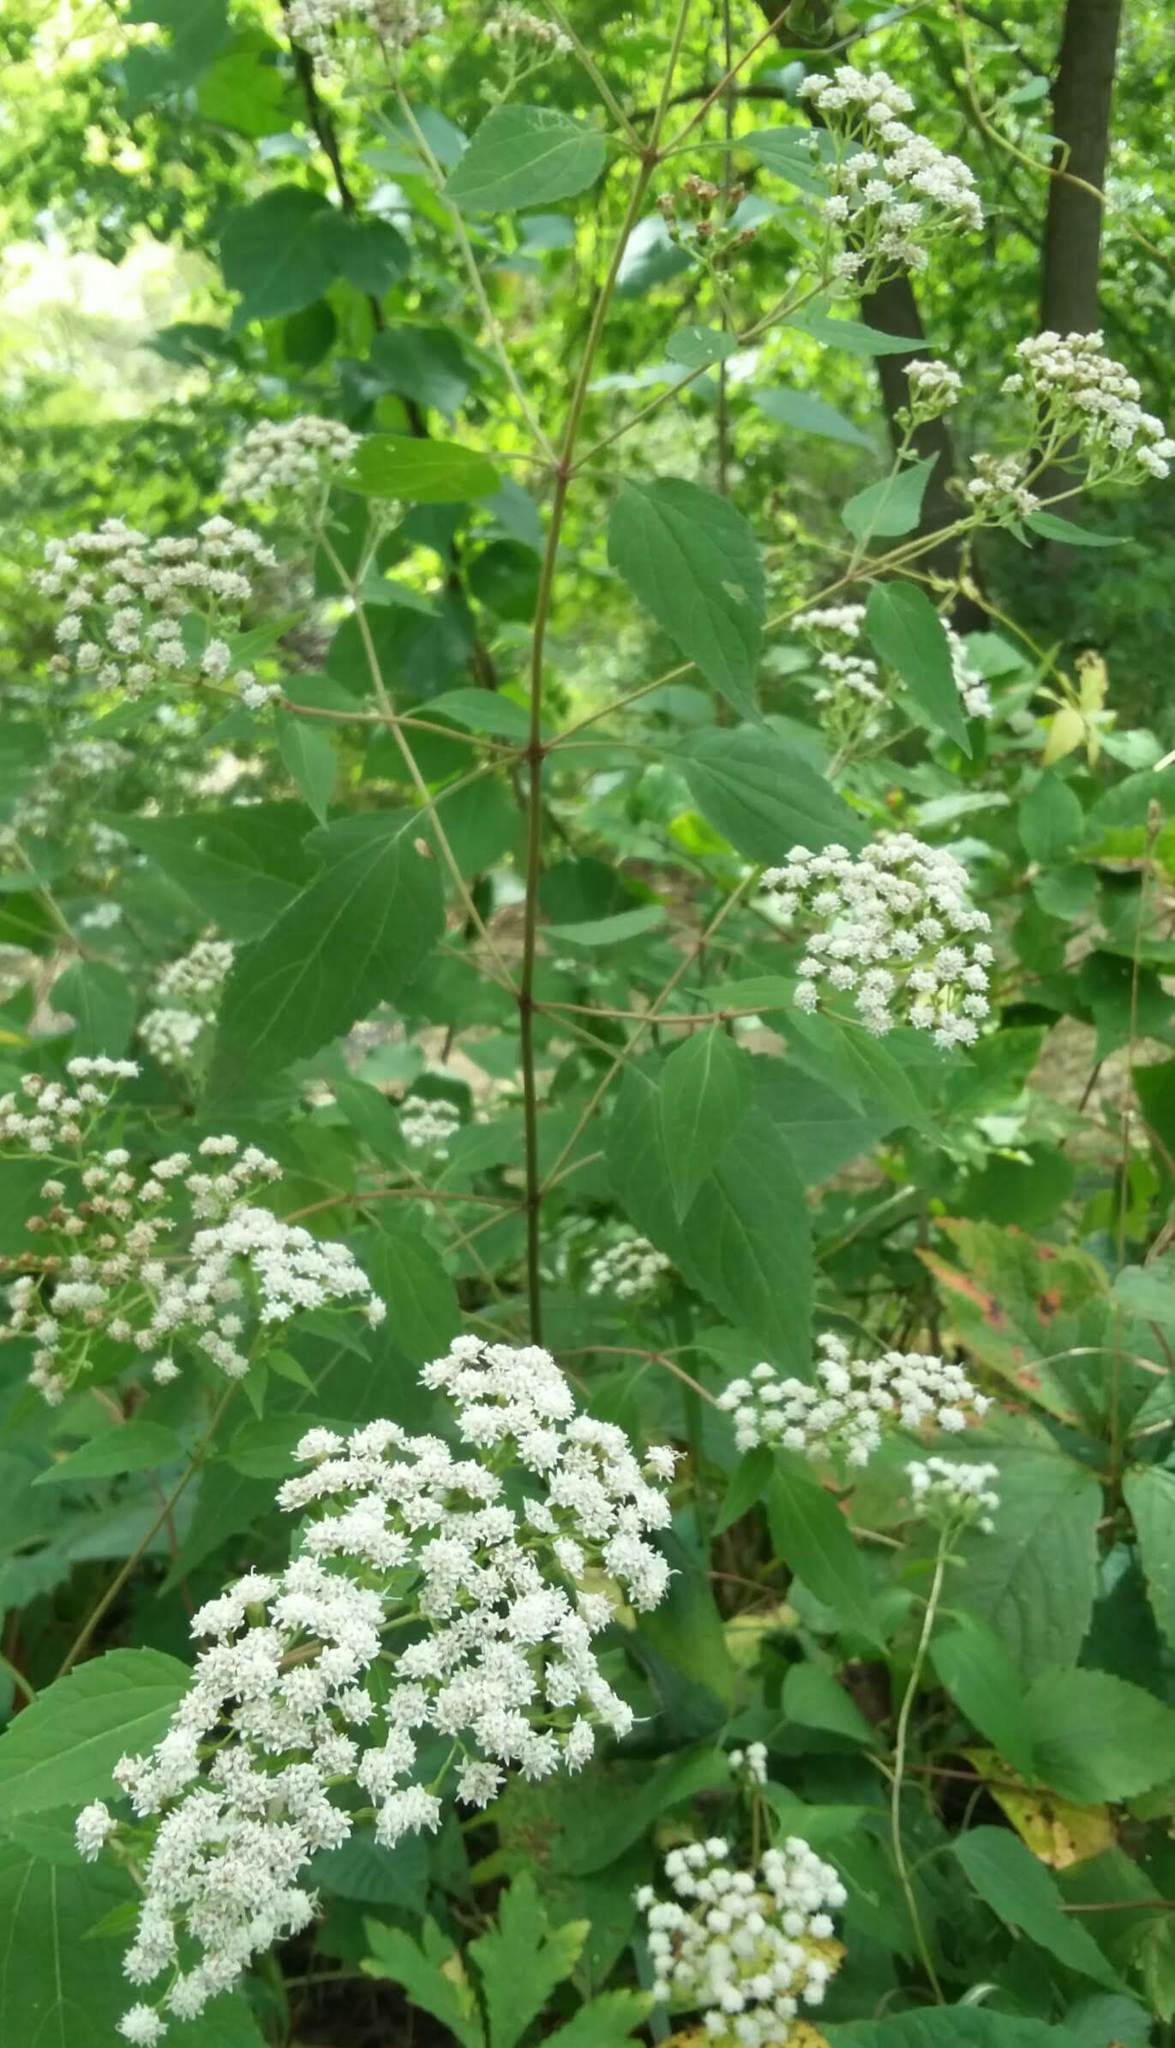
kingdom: Plantae
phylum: Tracheophyta
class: Magnoliopsida
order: Asterales
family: Asteraceae
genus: Ageratina
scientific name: Ageratina altissima
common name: White snakeroot
